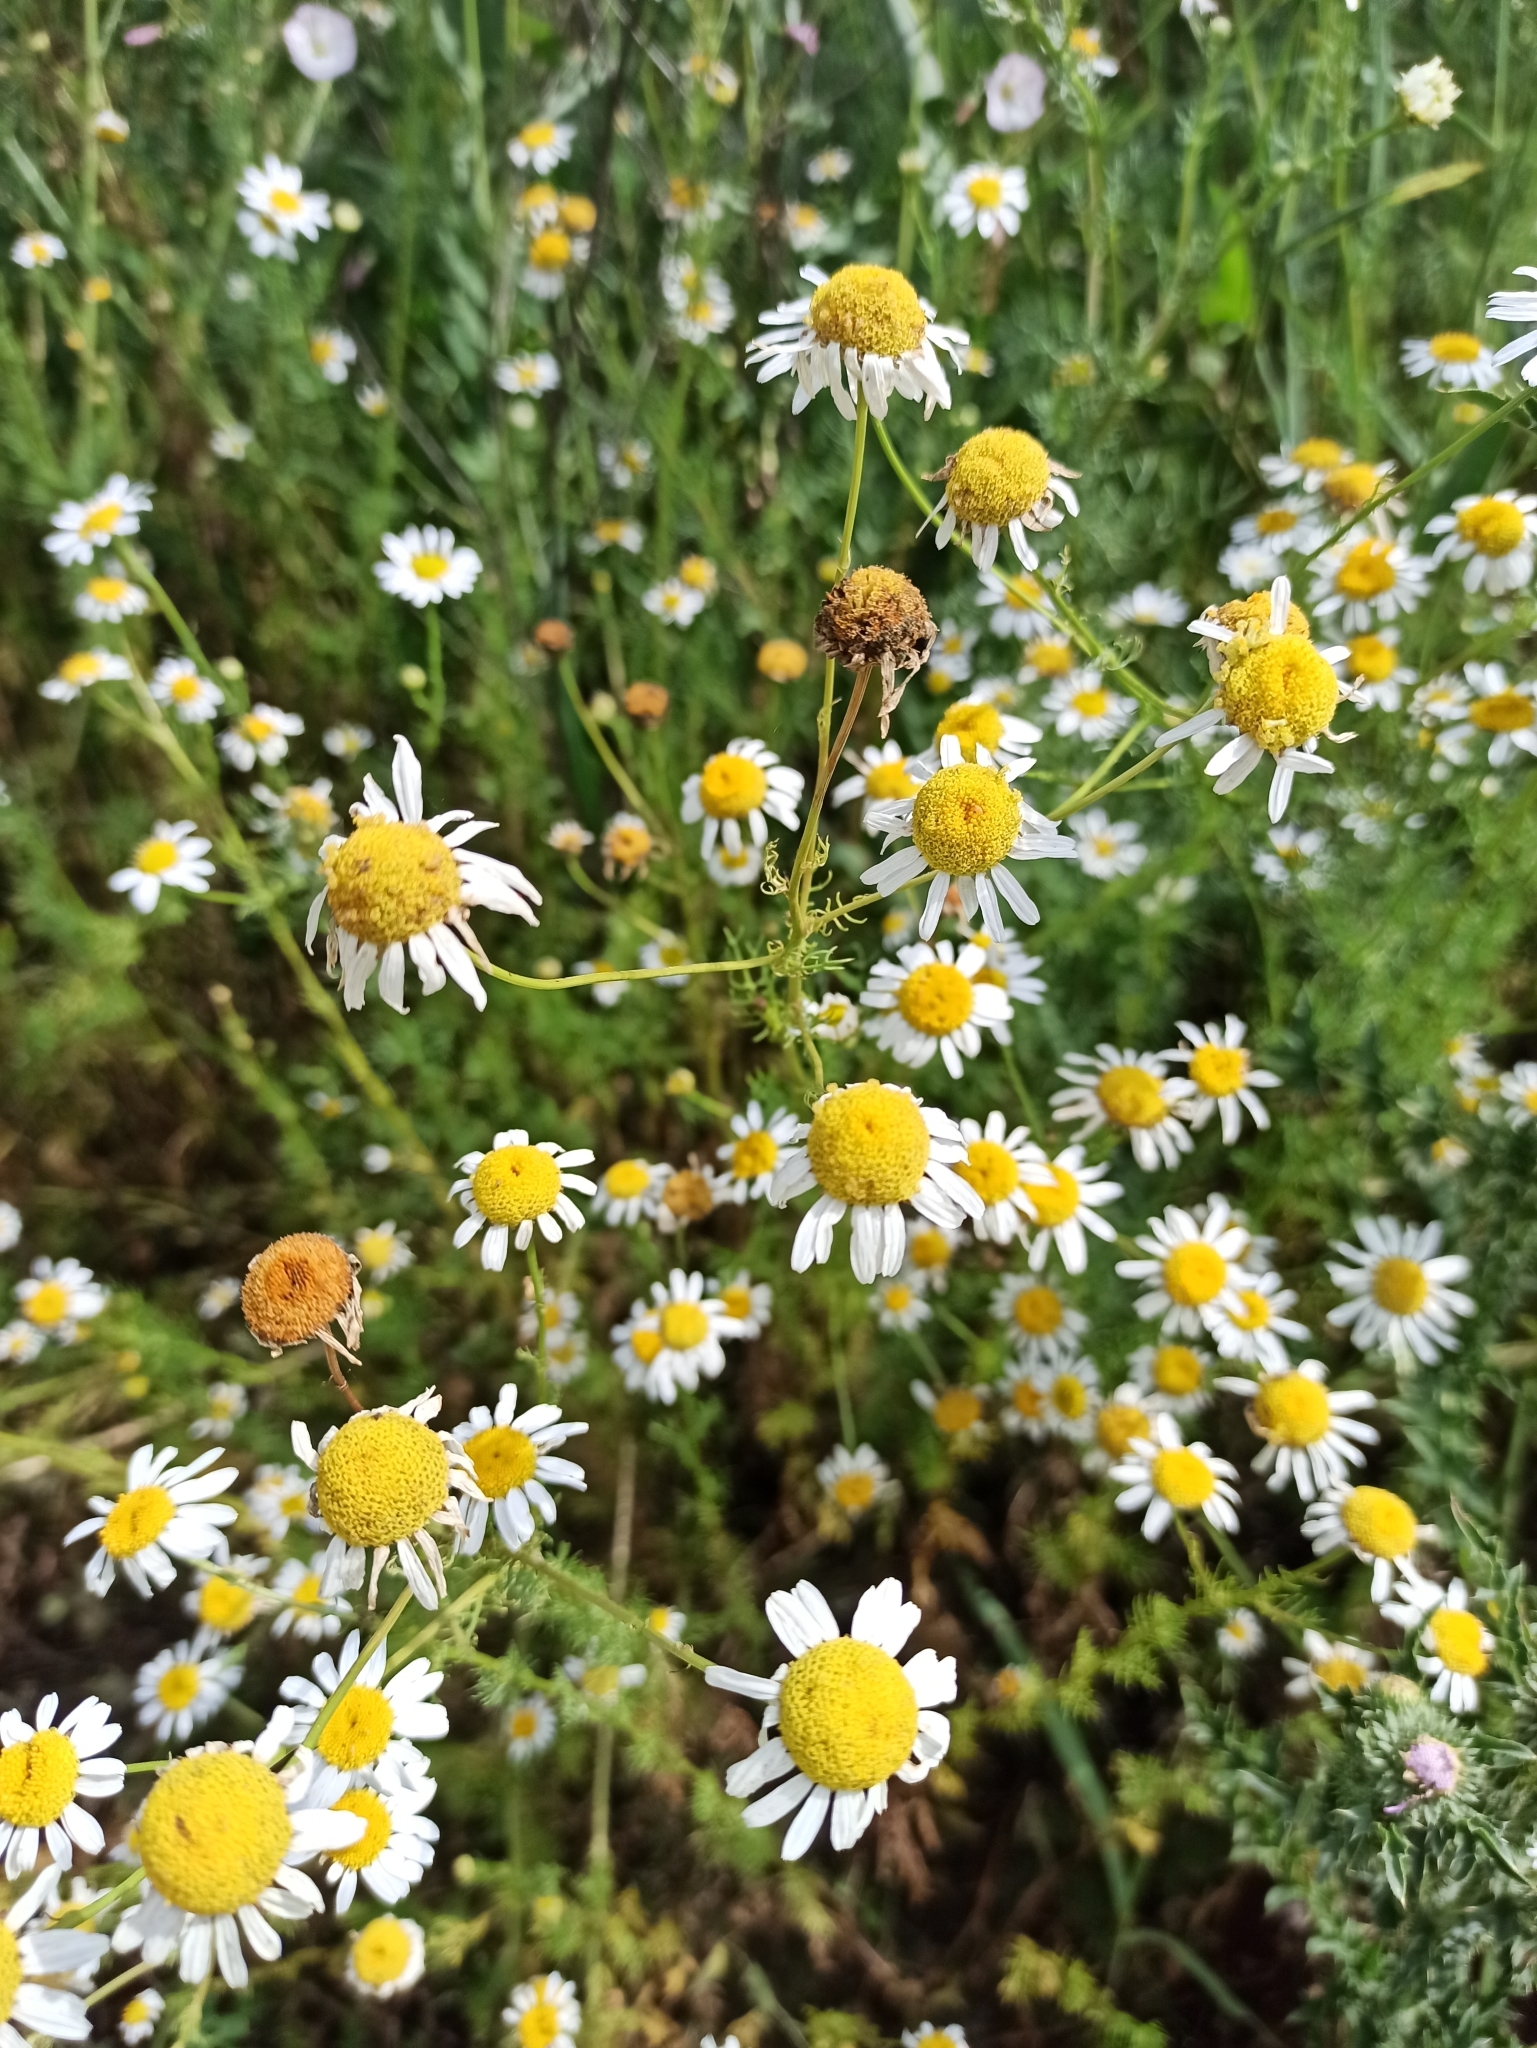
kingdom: Plantae
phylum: Tracheophyta
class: Magnoliopsida
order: Asterales
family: Asteraceae
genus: Tripleurospermum
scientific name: Tripleurospermum inodorum
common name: Scentless mayweed
